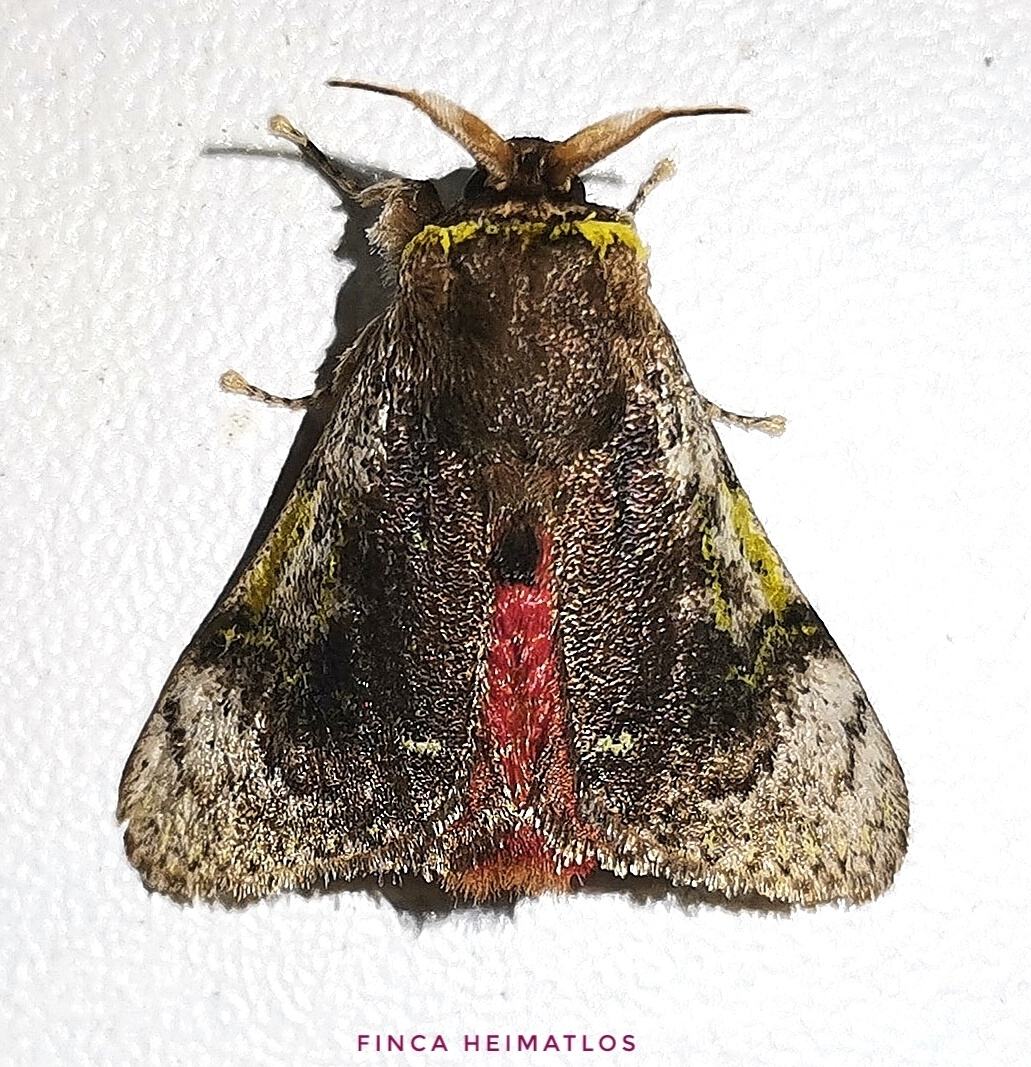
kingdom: Animalia
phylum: Arthropoda
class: Insecta
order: Lepidoptera
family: Aididae
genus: Aidos
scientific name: Aidos yamouna
